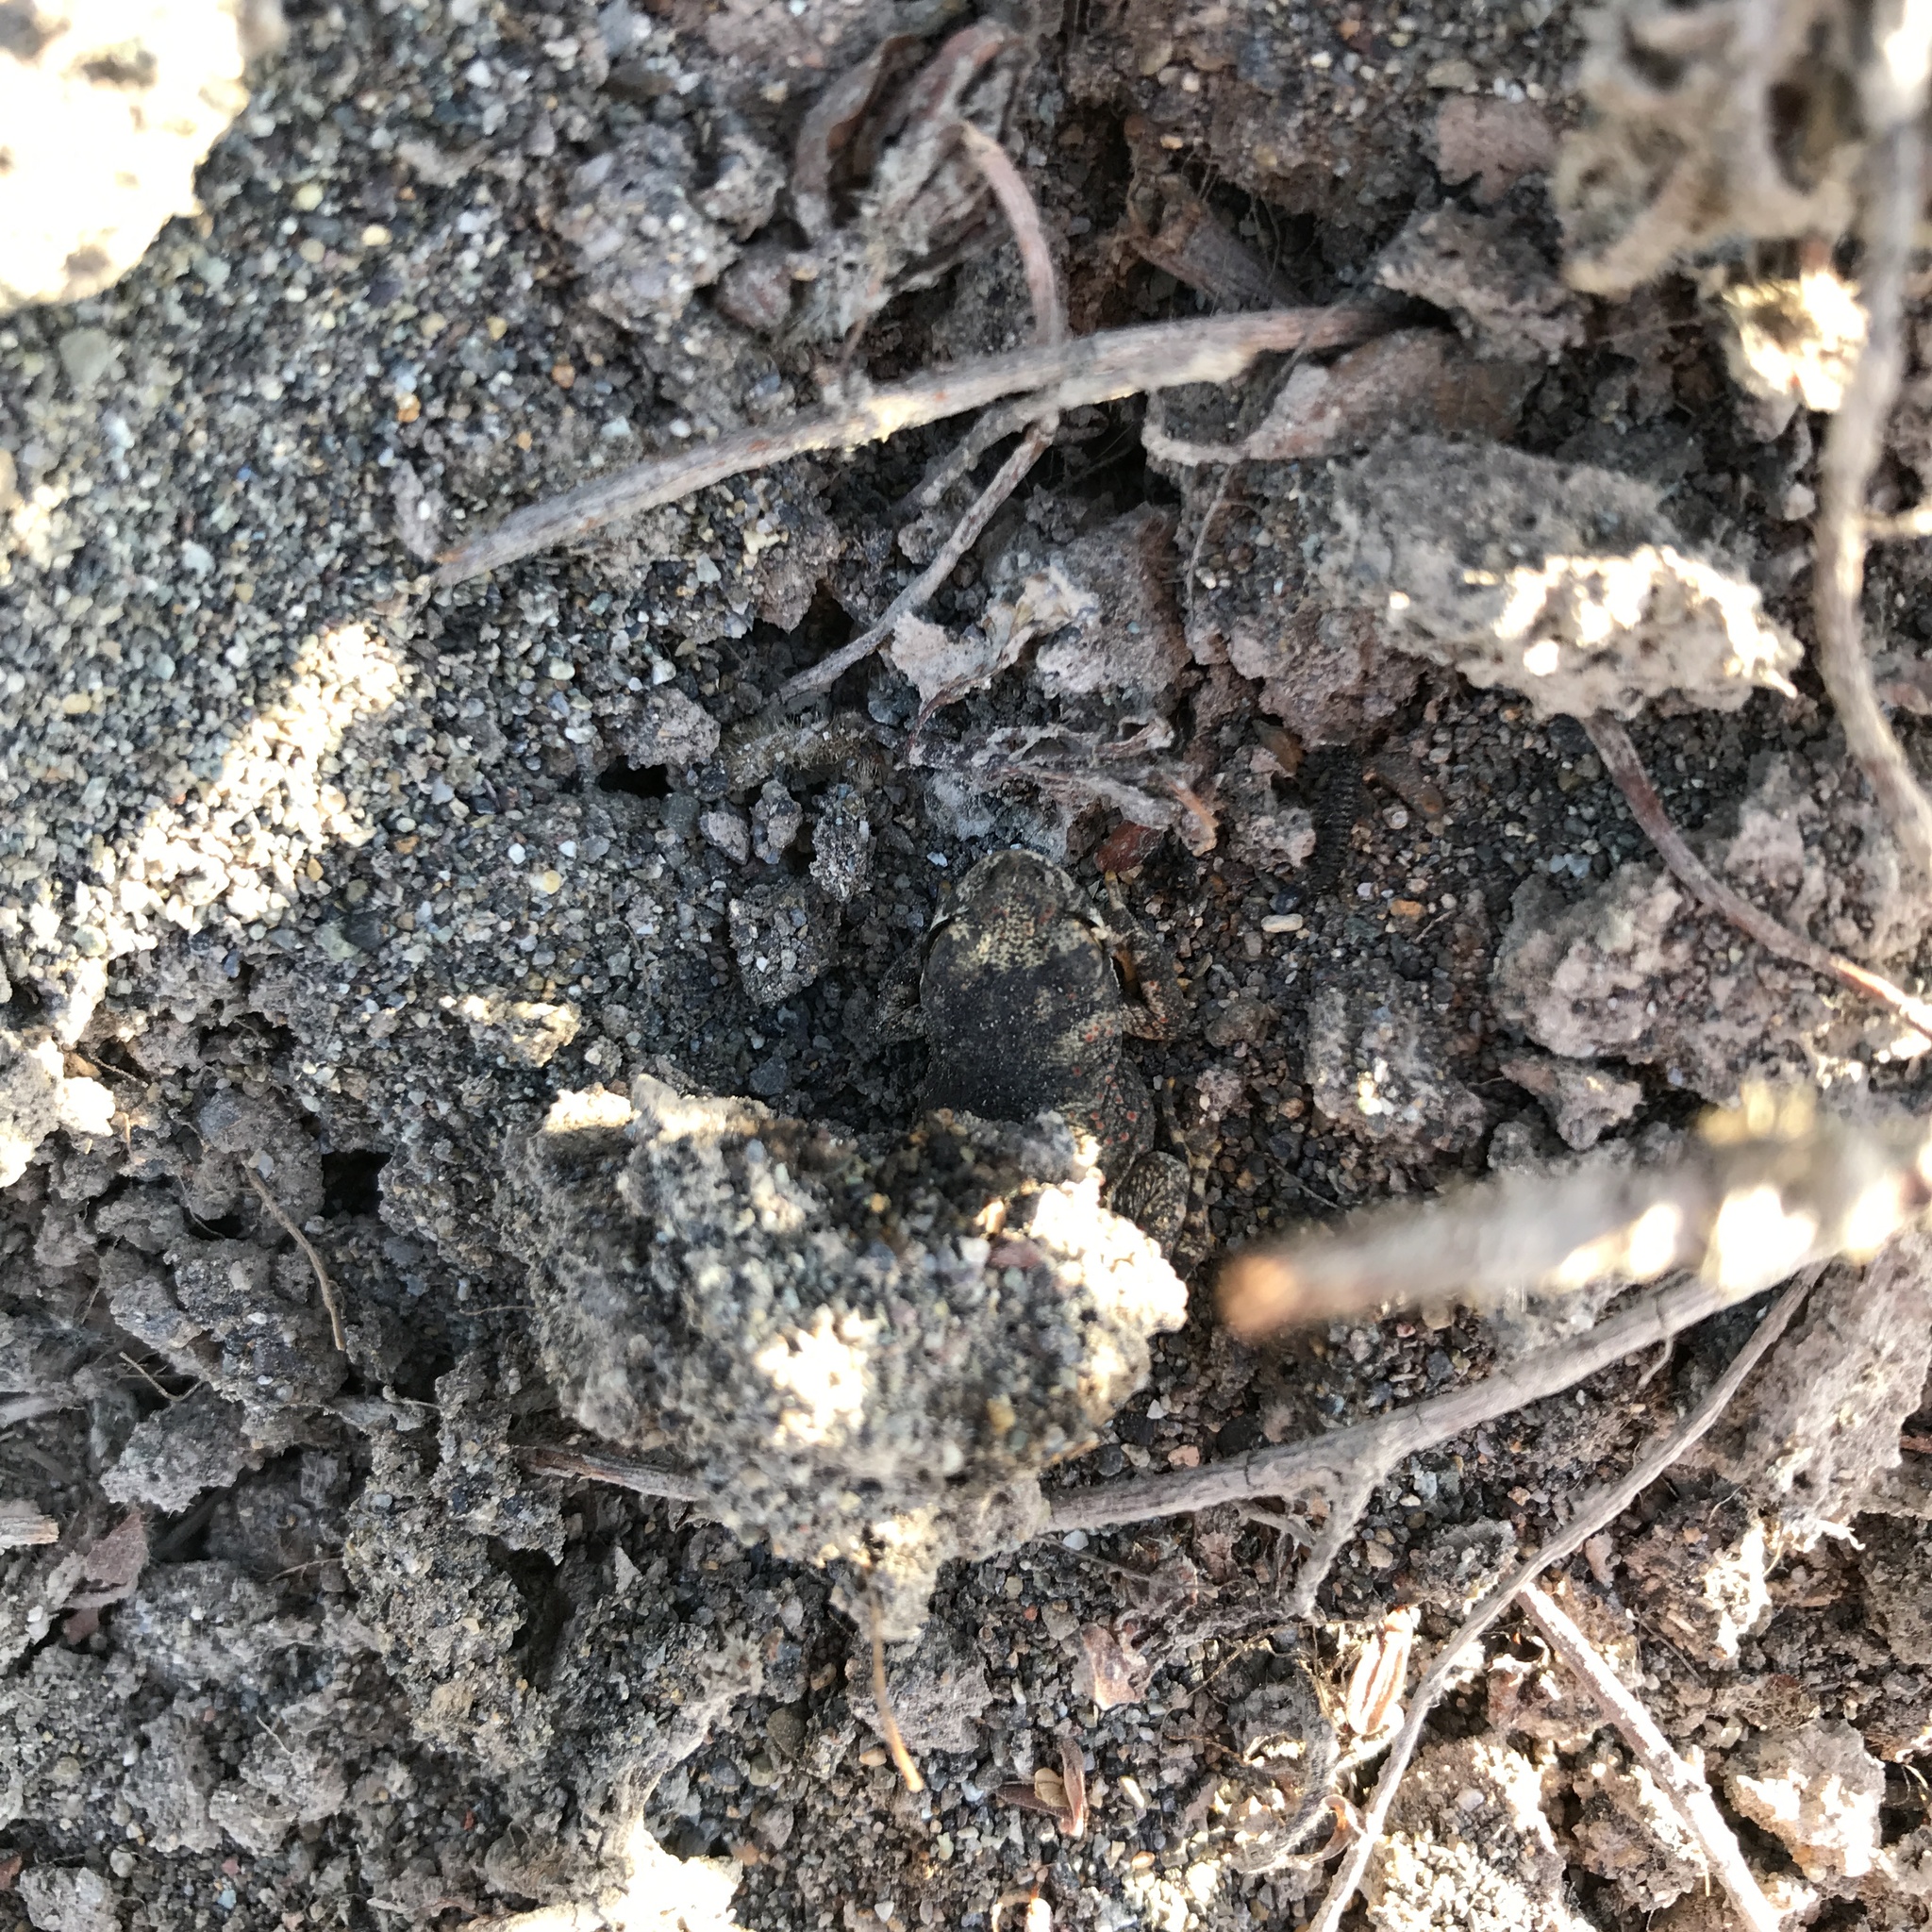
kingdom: Animalia
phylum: Chordata
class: Amphibia
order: Anura
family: Bufonidae
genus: Rhinella
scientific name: Rhinella arunco
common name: Concepcion toad
